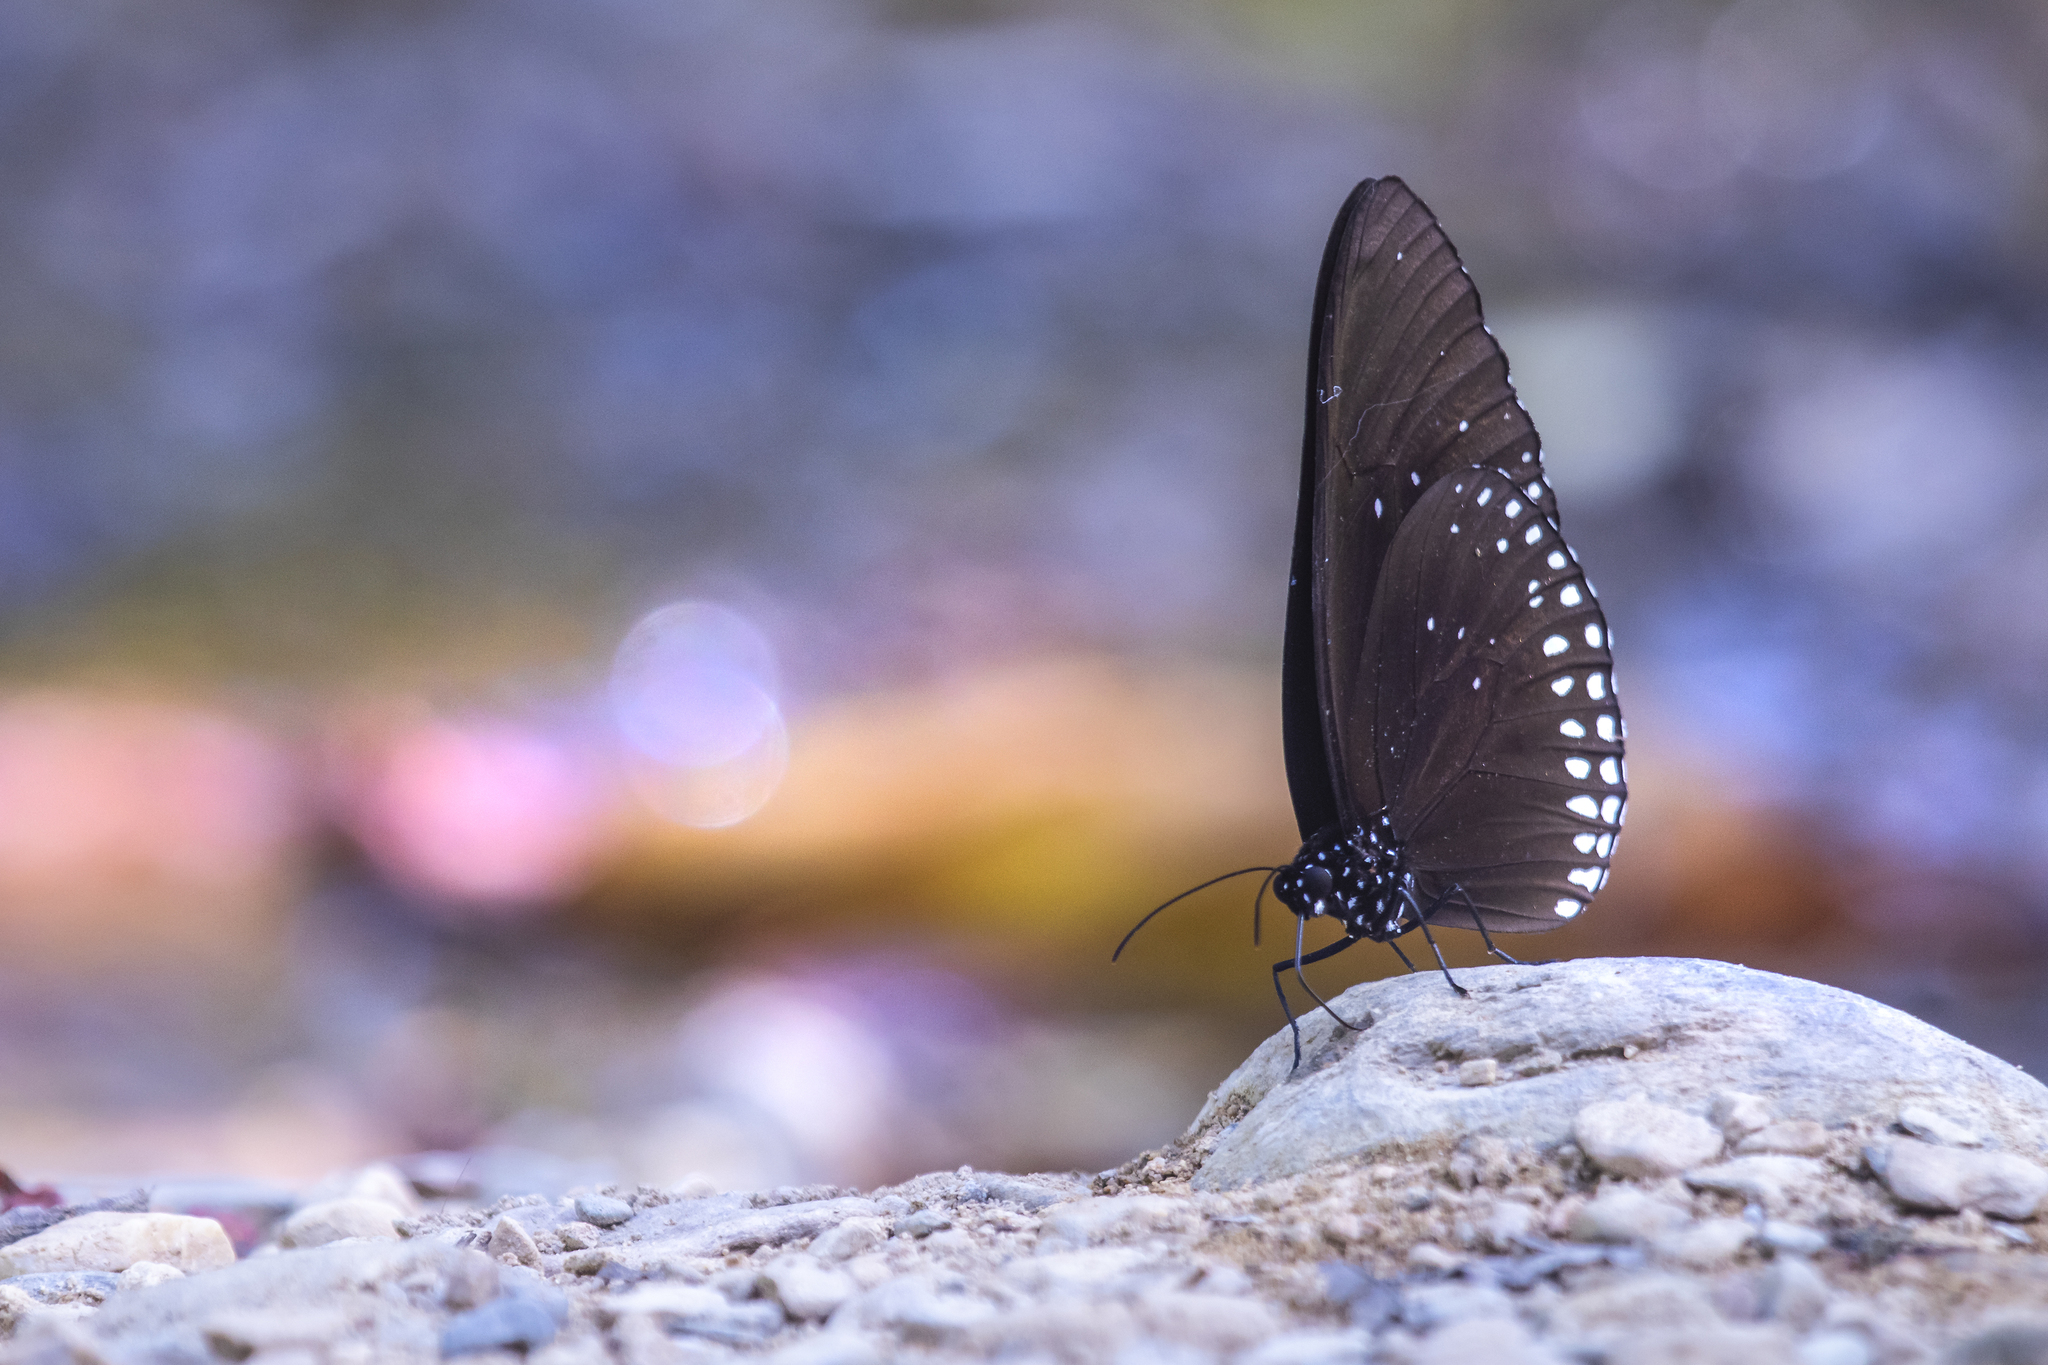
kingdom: Animalia
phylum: Arthropoda
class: Insecta
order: Lepidoptera
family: Nymphalidae
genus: Euploea
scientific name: Euploea core
